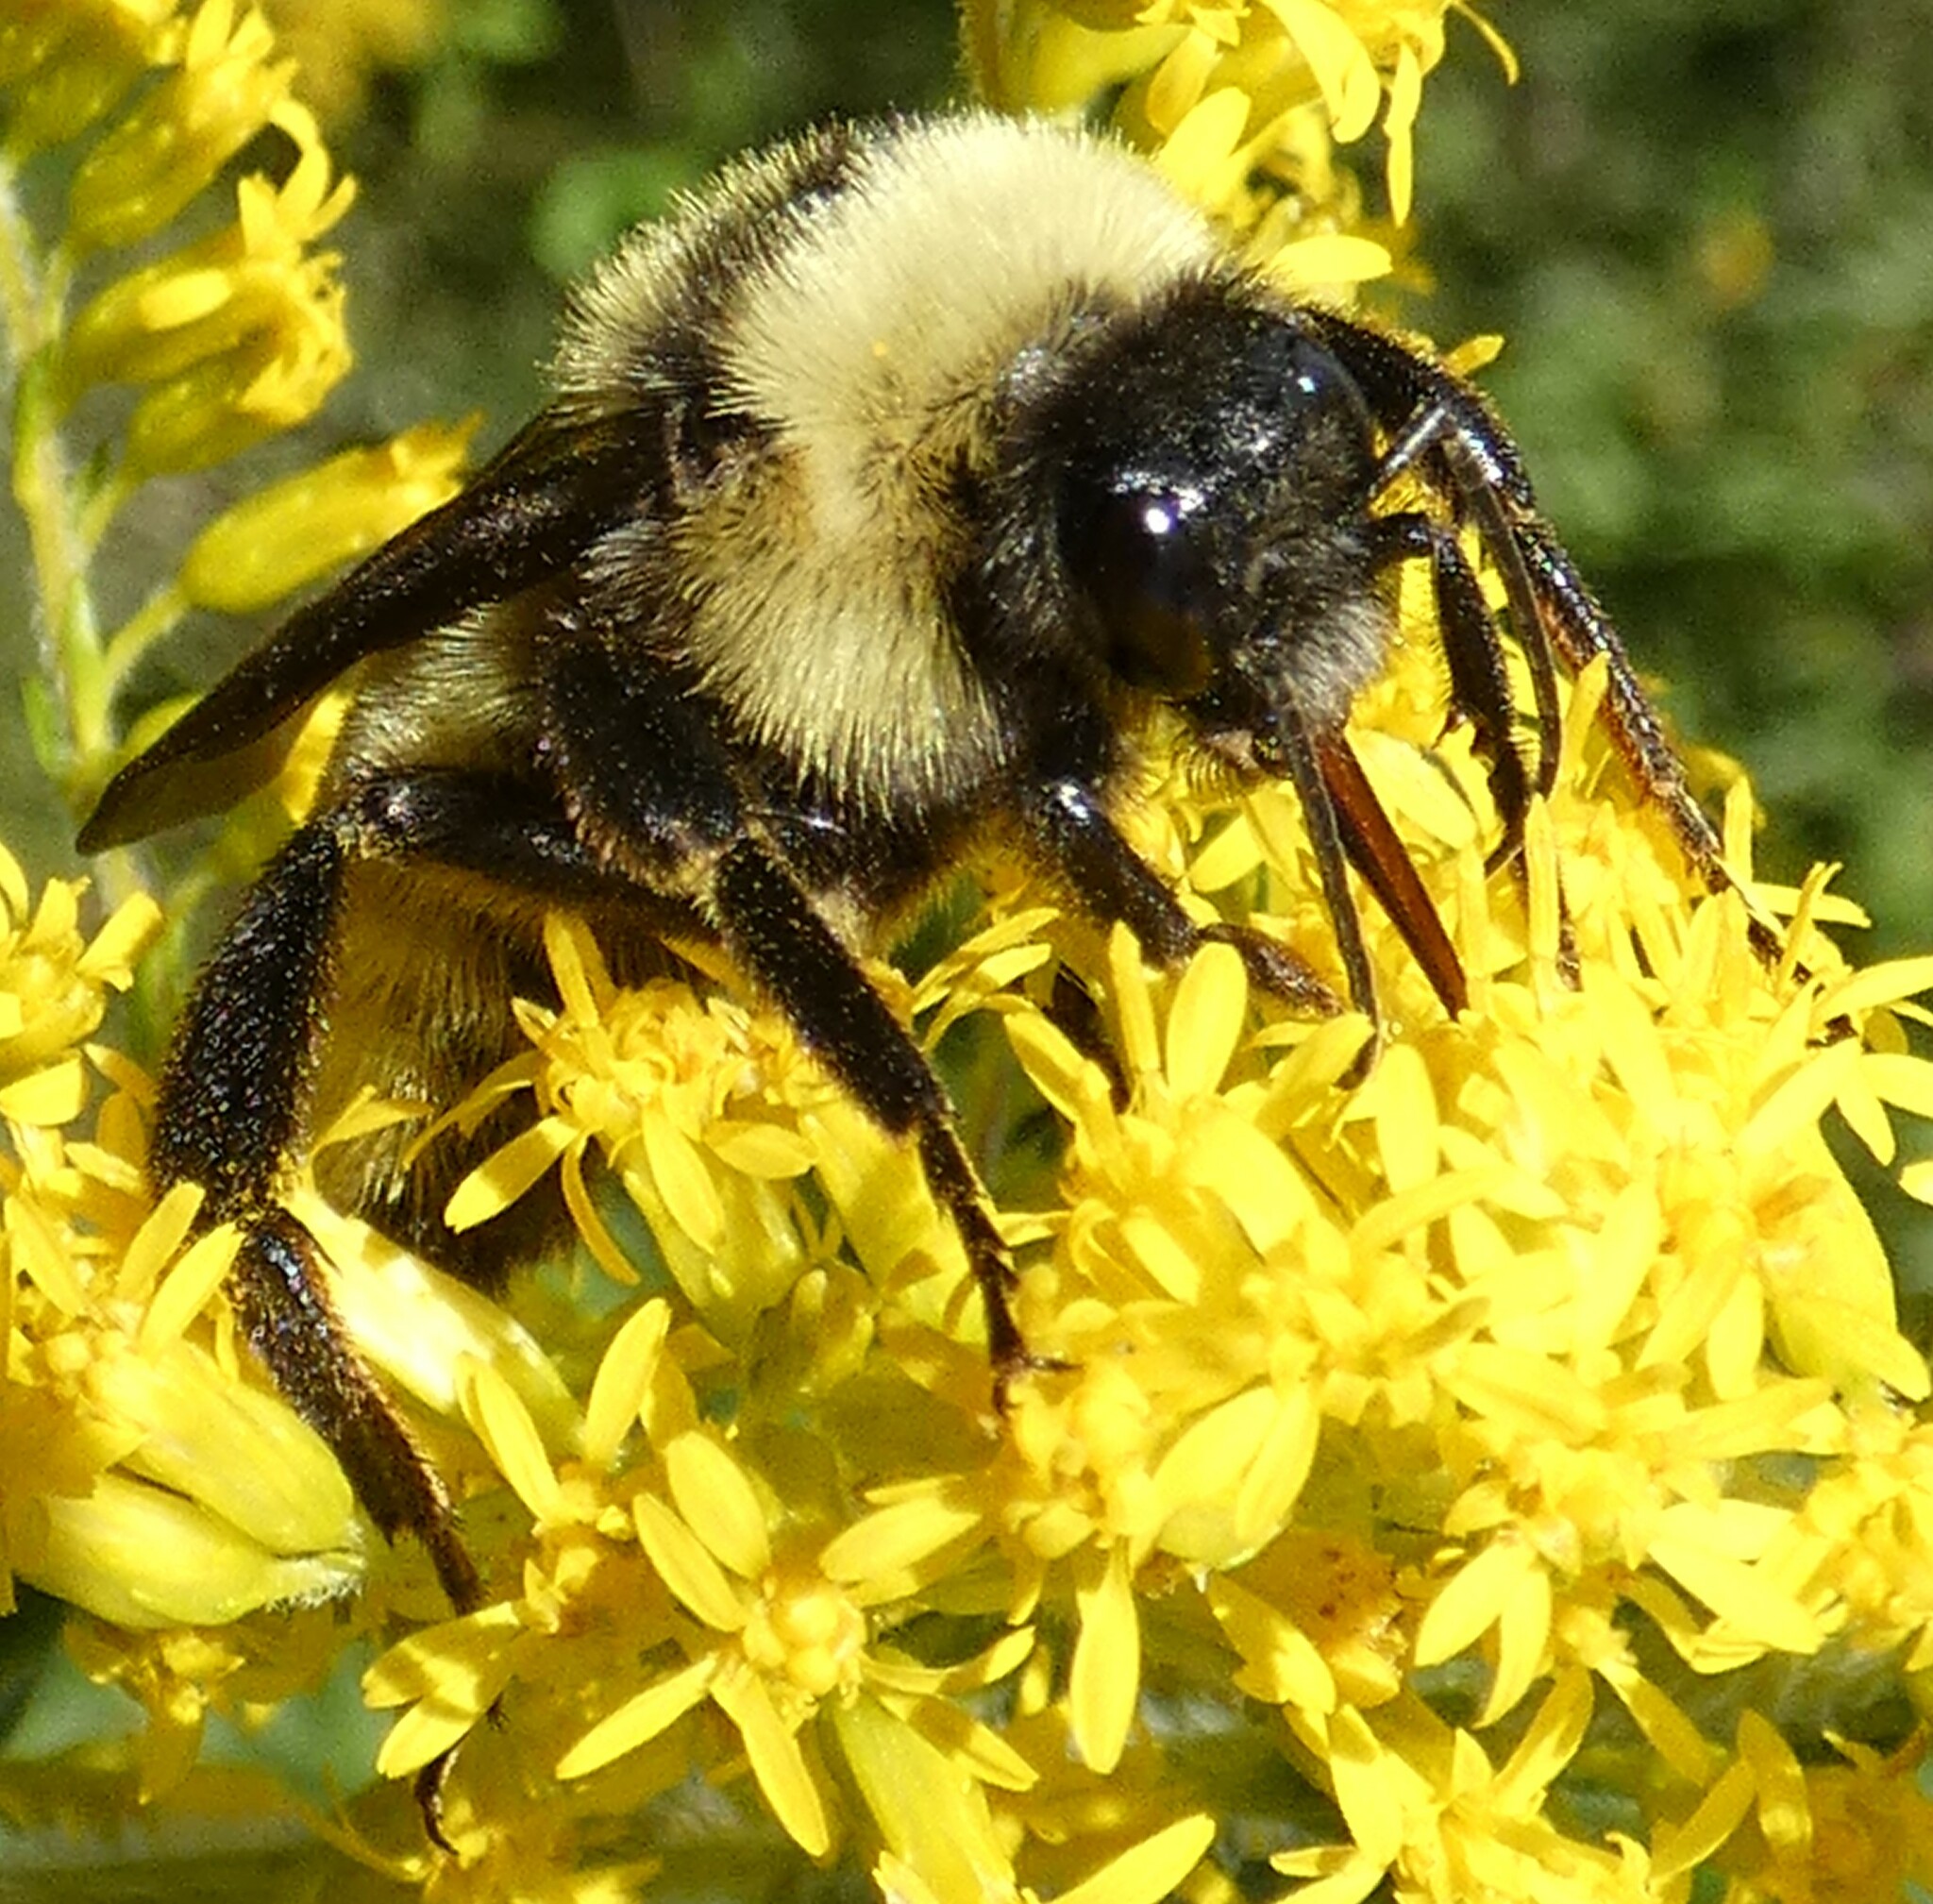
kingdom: Animalia
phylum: Arthropoda
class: Insecta
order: Hymenoptera
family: Apidae
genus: Bombus
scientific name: Bombus pensylvanicus
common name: Bumble bee
